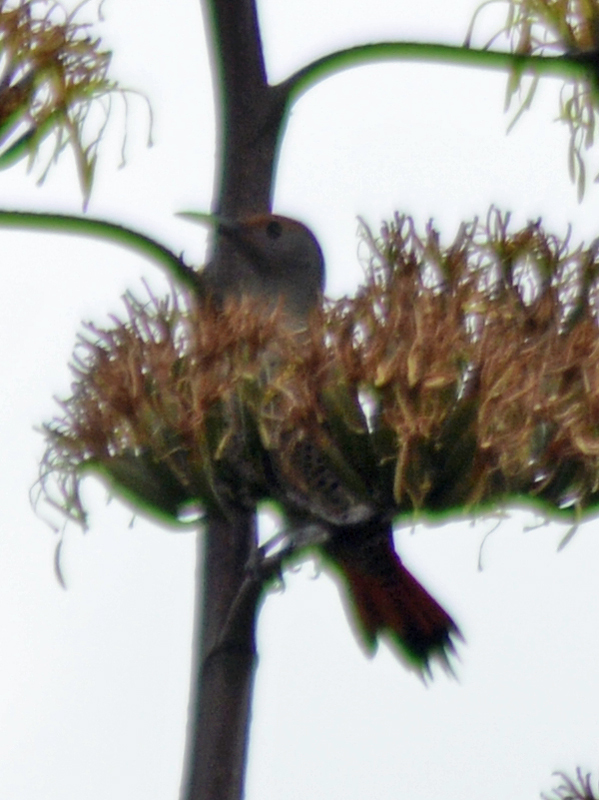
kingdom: Animalia
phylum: Chordata
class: Aves
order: Piciformes
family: Picidae
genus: Colaptes
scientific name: Colaptes auratus
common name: Northern flicker
